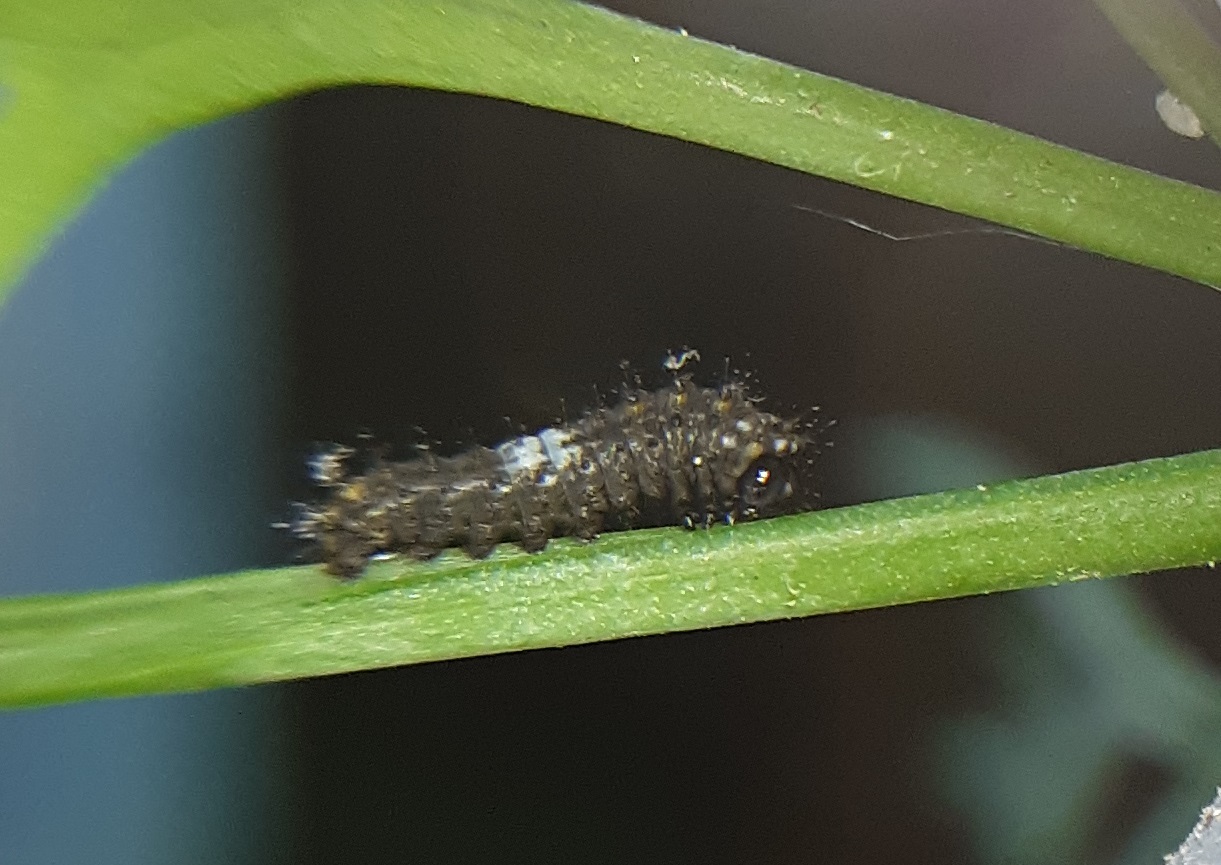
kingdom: Animalia
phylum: Arthropoda
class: Insecta
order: Lepidoptera
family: Papilionidae
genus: Papilio
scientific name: Papilio polyxenes
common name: Black swallowtail
